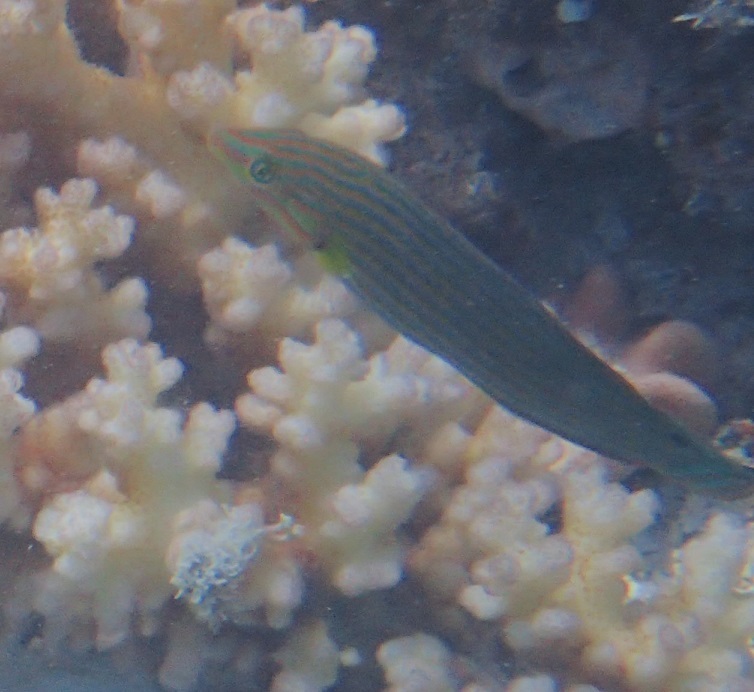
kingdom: Animalia
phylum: Chordata
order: Perciformes
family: Labridae
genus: Halichoeres
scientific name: Halichoeres melanurus
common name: Hoeven's wrasse
